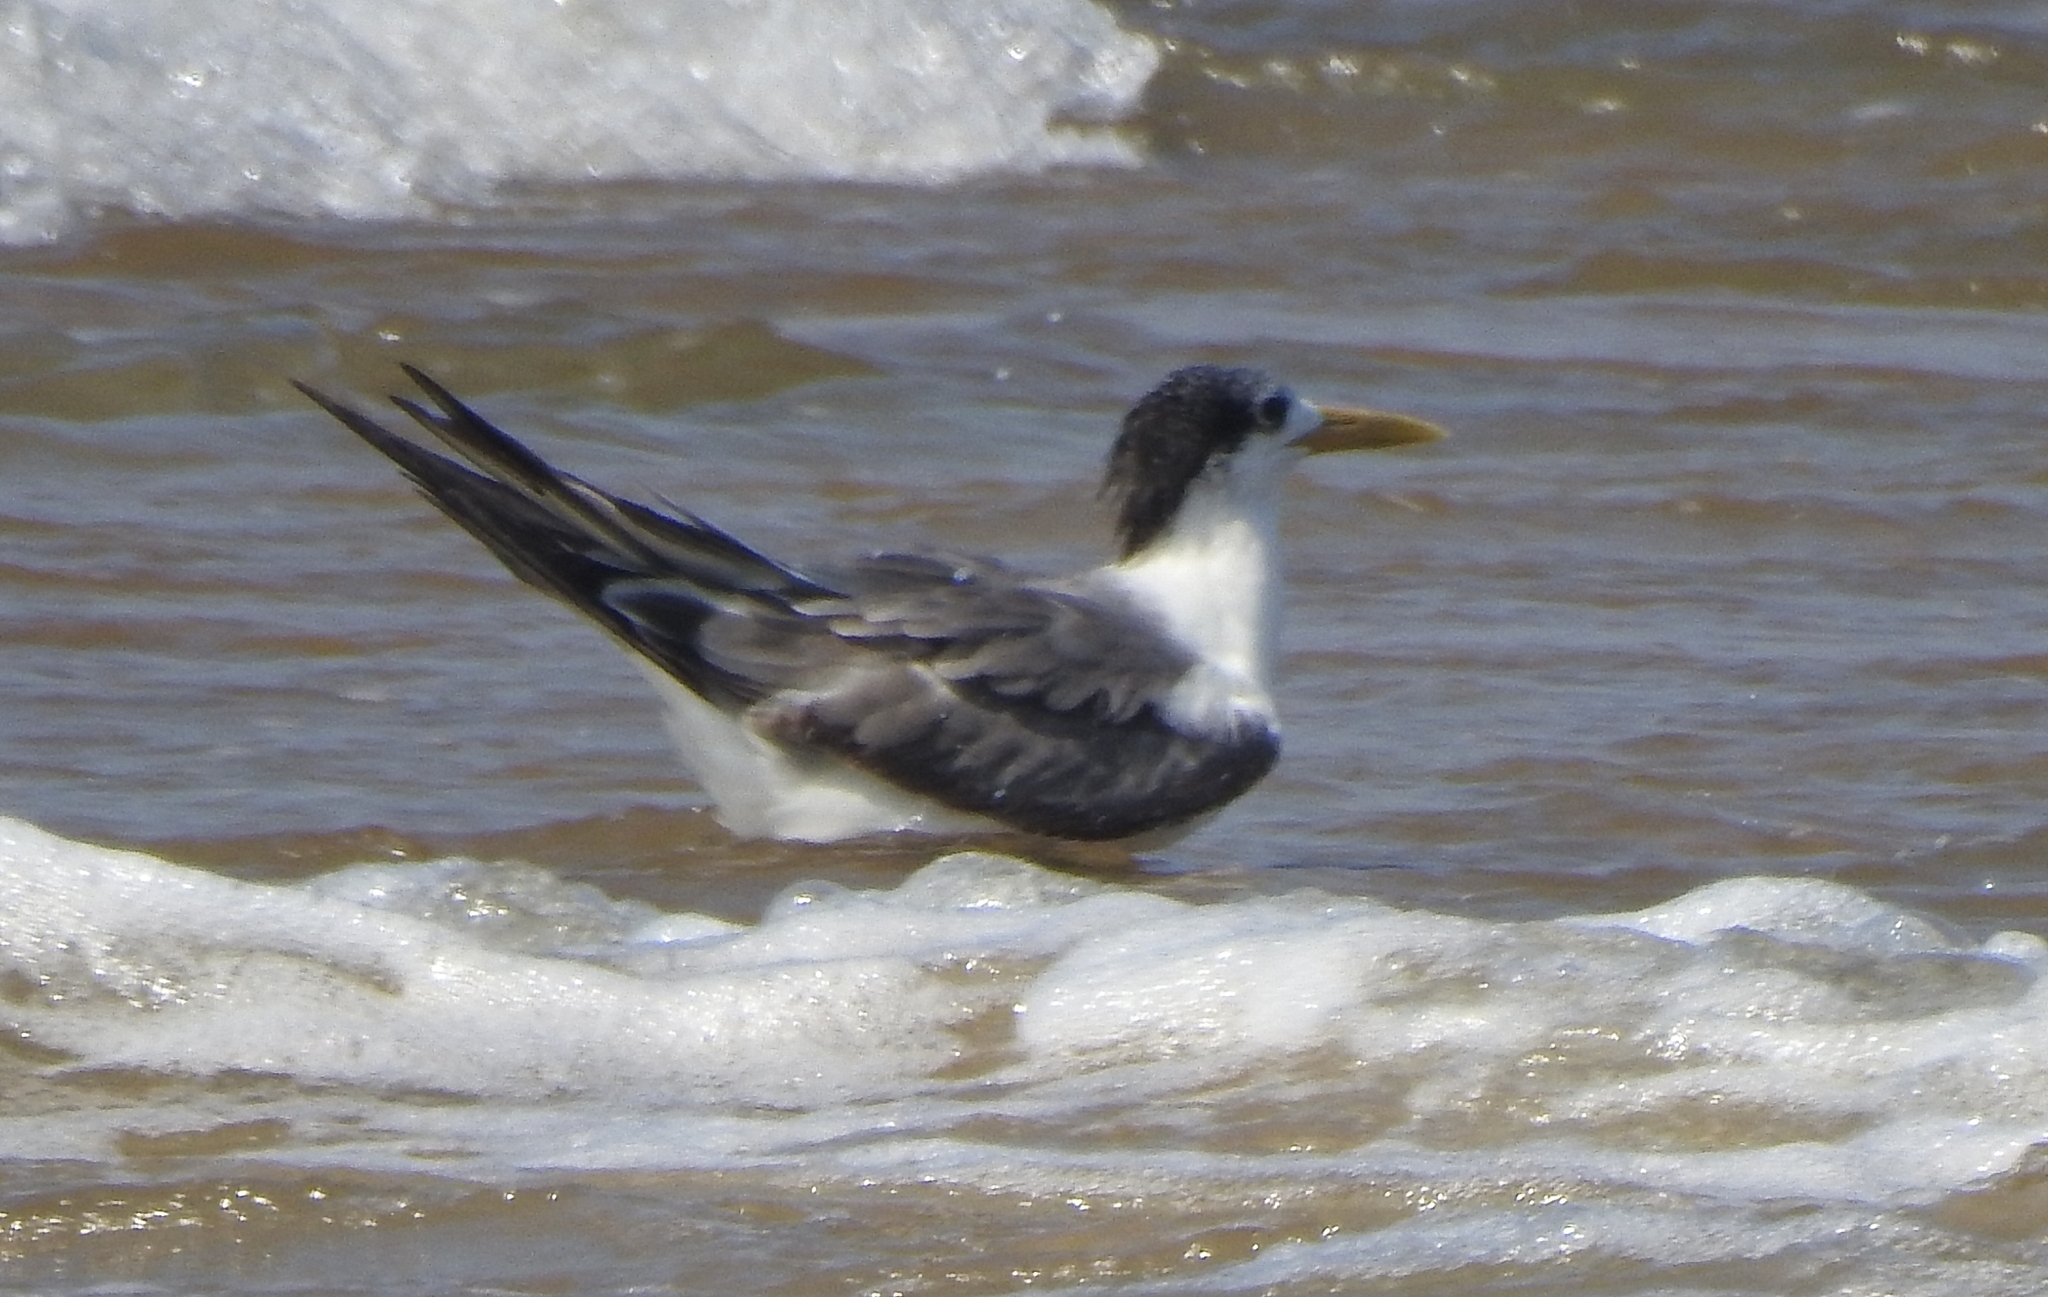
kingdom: Animalia
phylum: Chordata
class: Aves
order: Charadriiformes
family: Laridae
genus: Thalasseus
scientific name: Thalasseus bergii
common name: Greater crested tern
